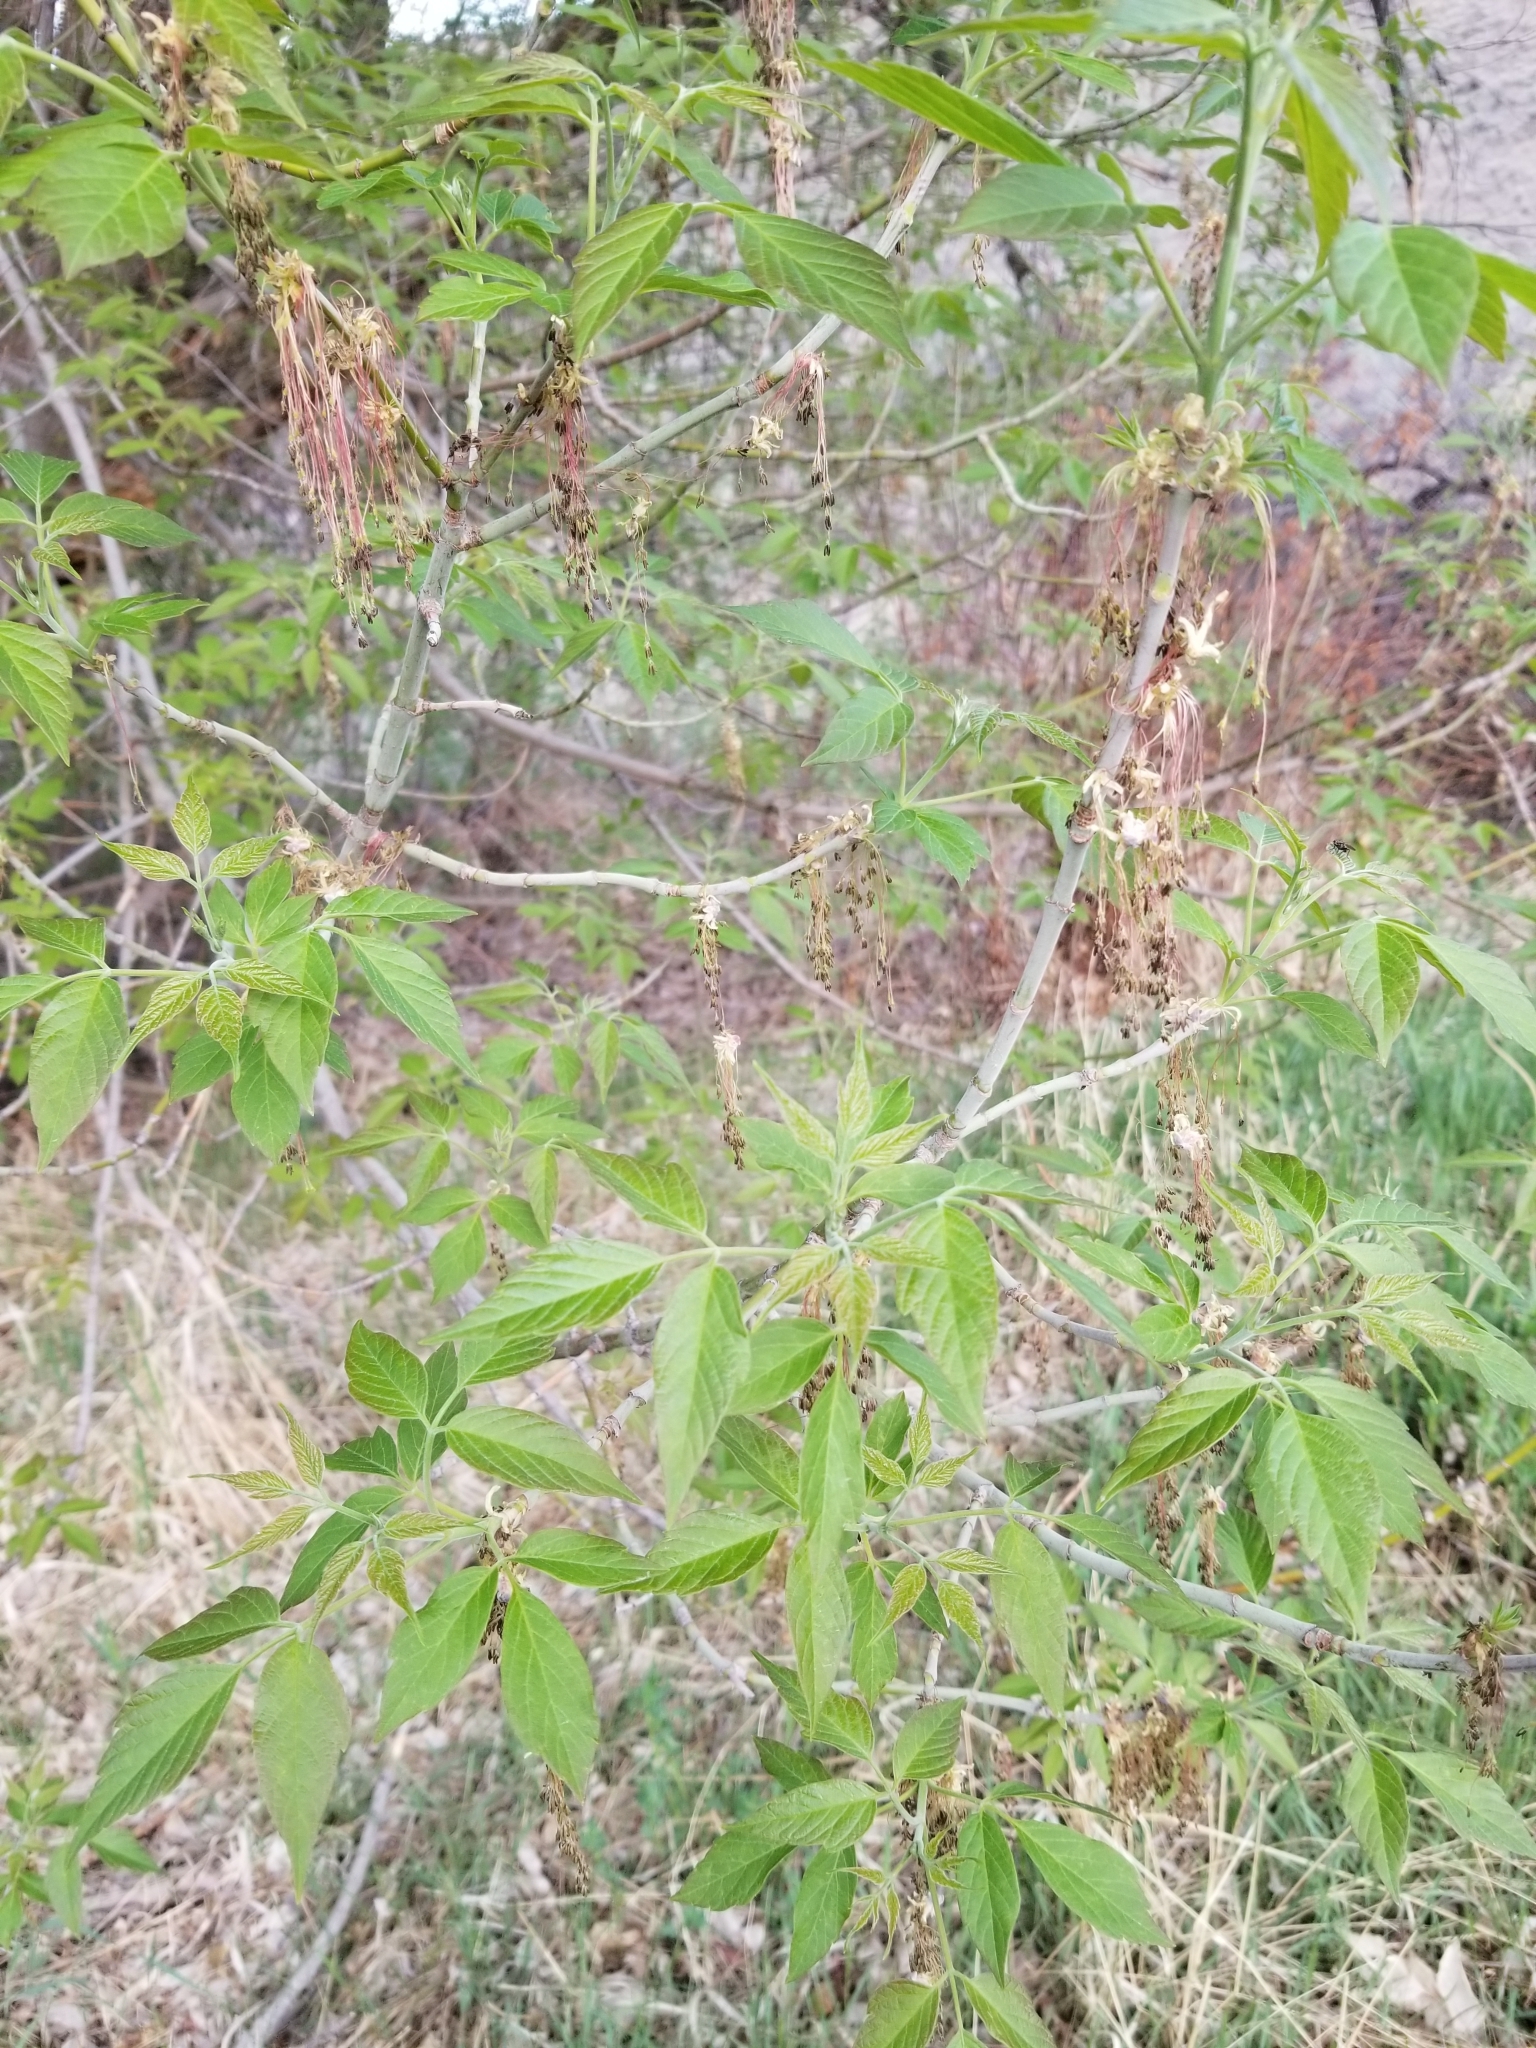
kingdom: Plantae
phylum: Tracheophyta
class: Magnoliopsida
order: Sapindales
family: Sapindaceae
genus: Acer
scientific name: Acer negundo
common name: Ashleaf maple
